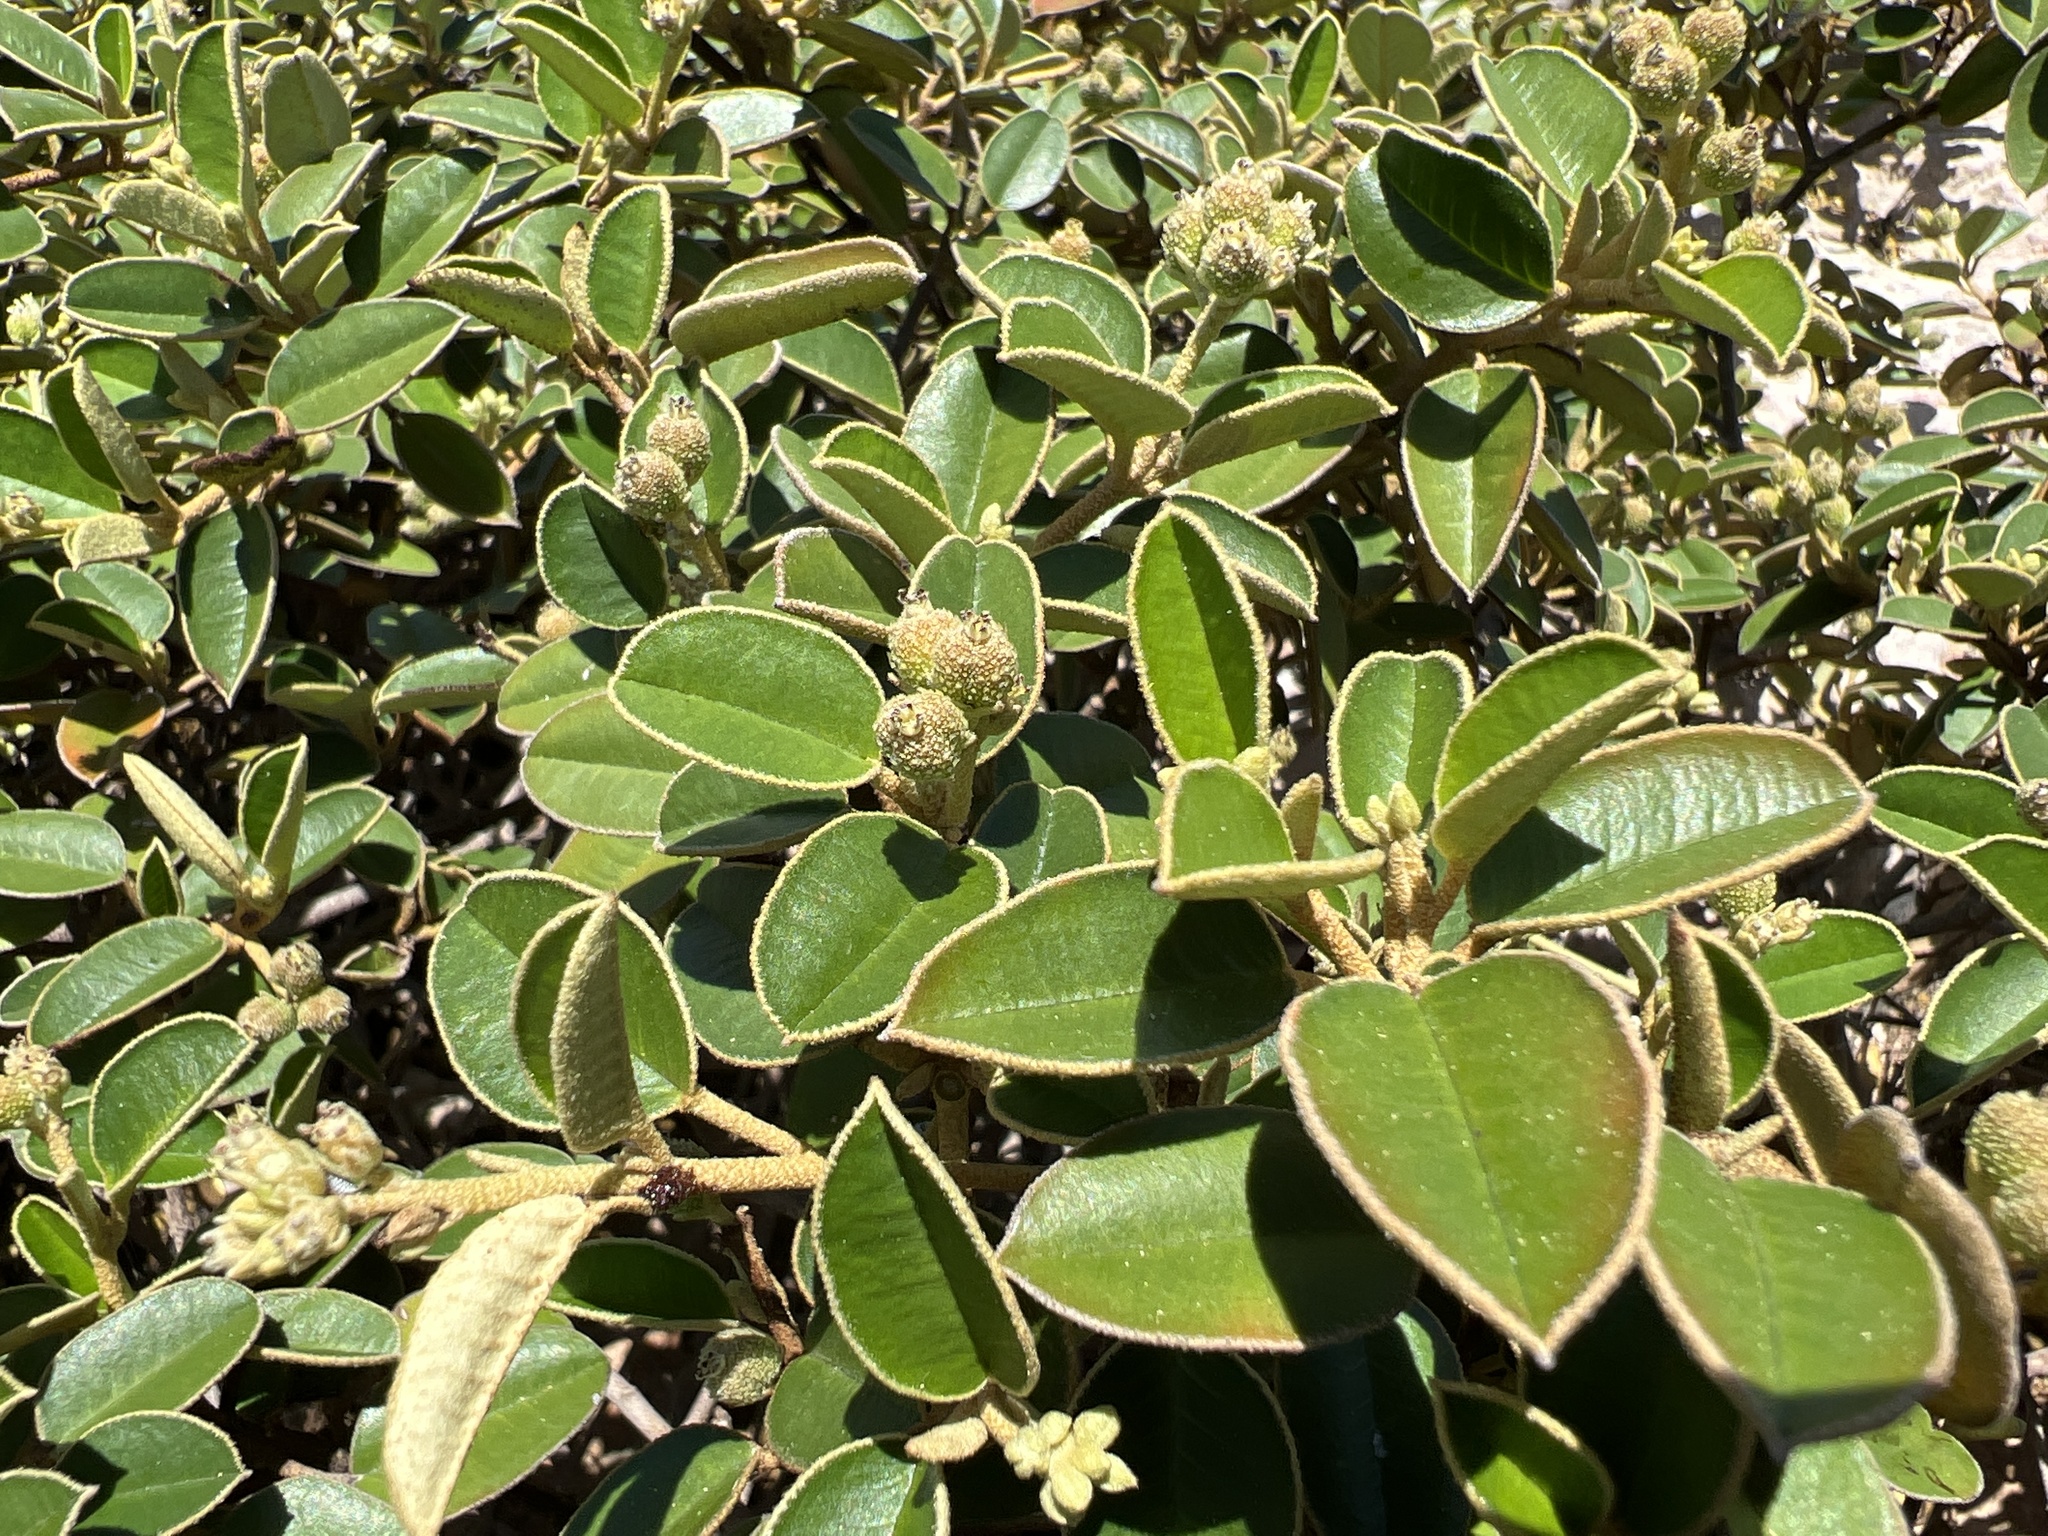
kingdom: Plantae
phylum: Tracheophyta
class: Magnoliopsida
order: Malpighiales
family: Euphorbiaceae
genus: Croton
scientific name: Croton discolor
